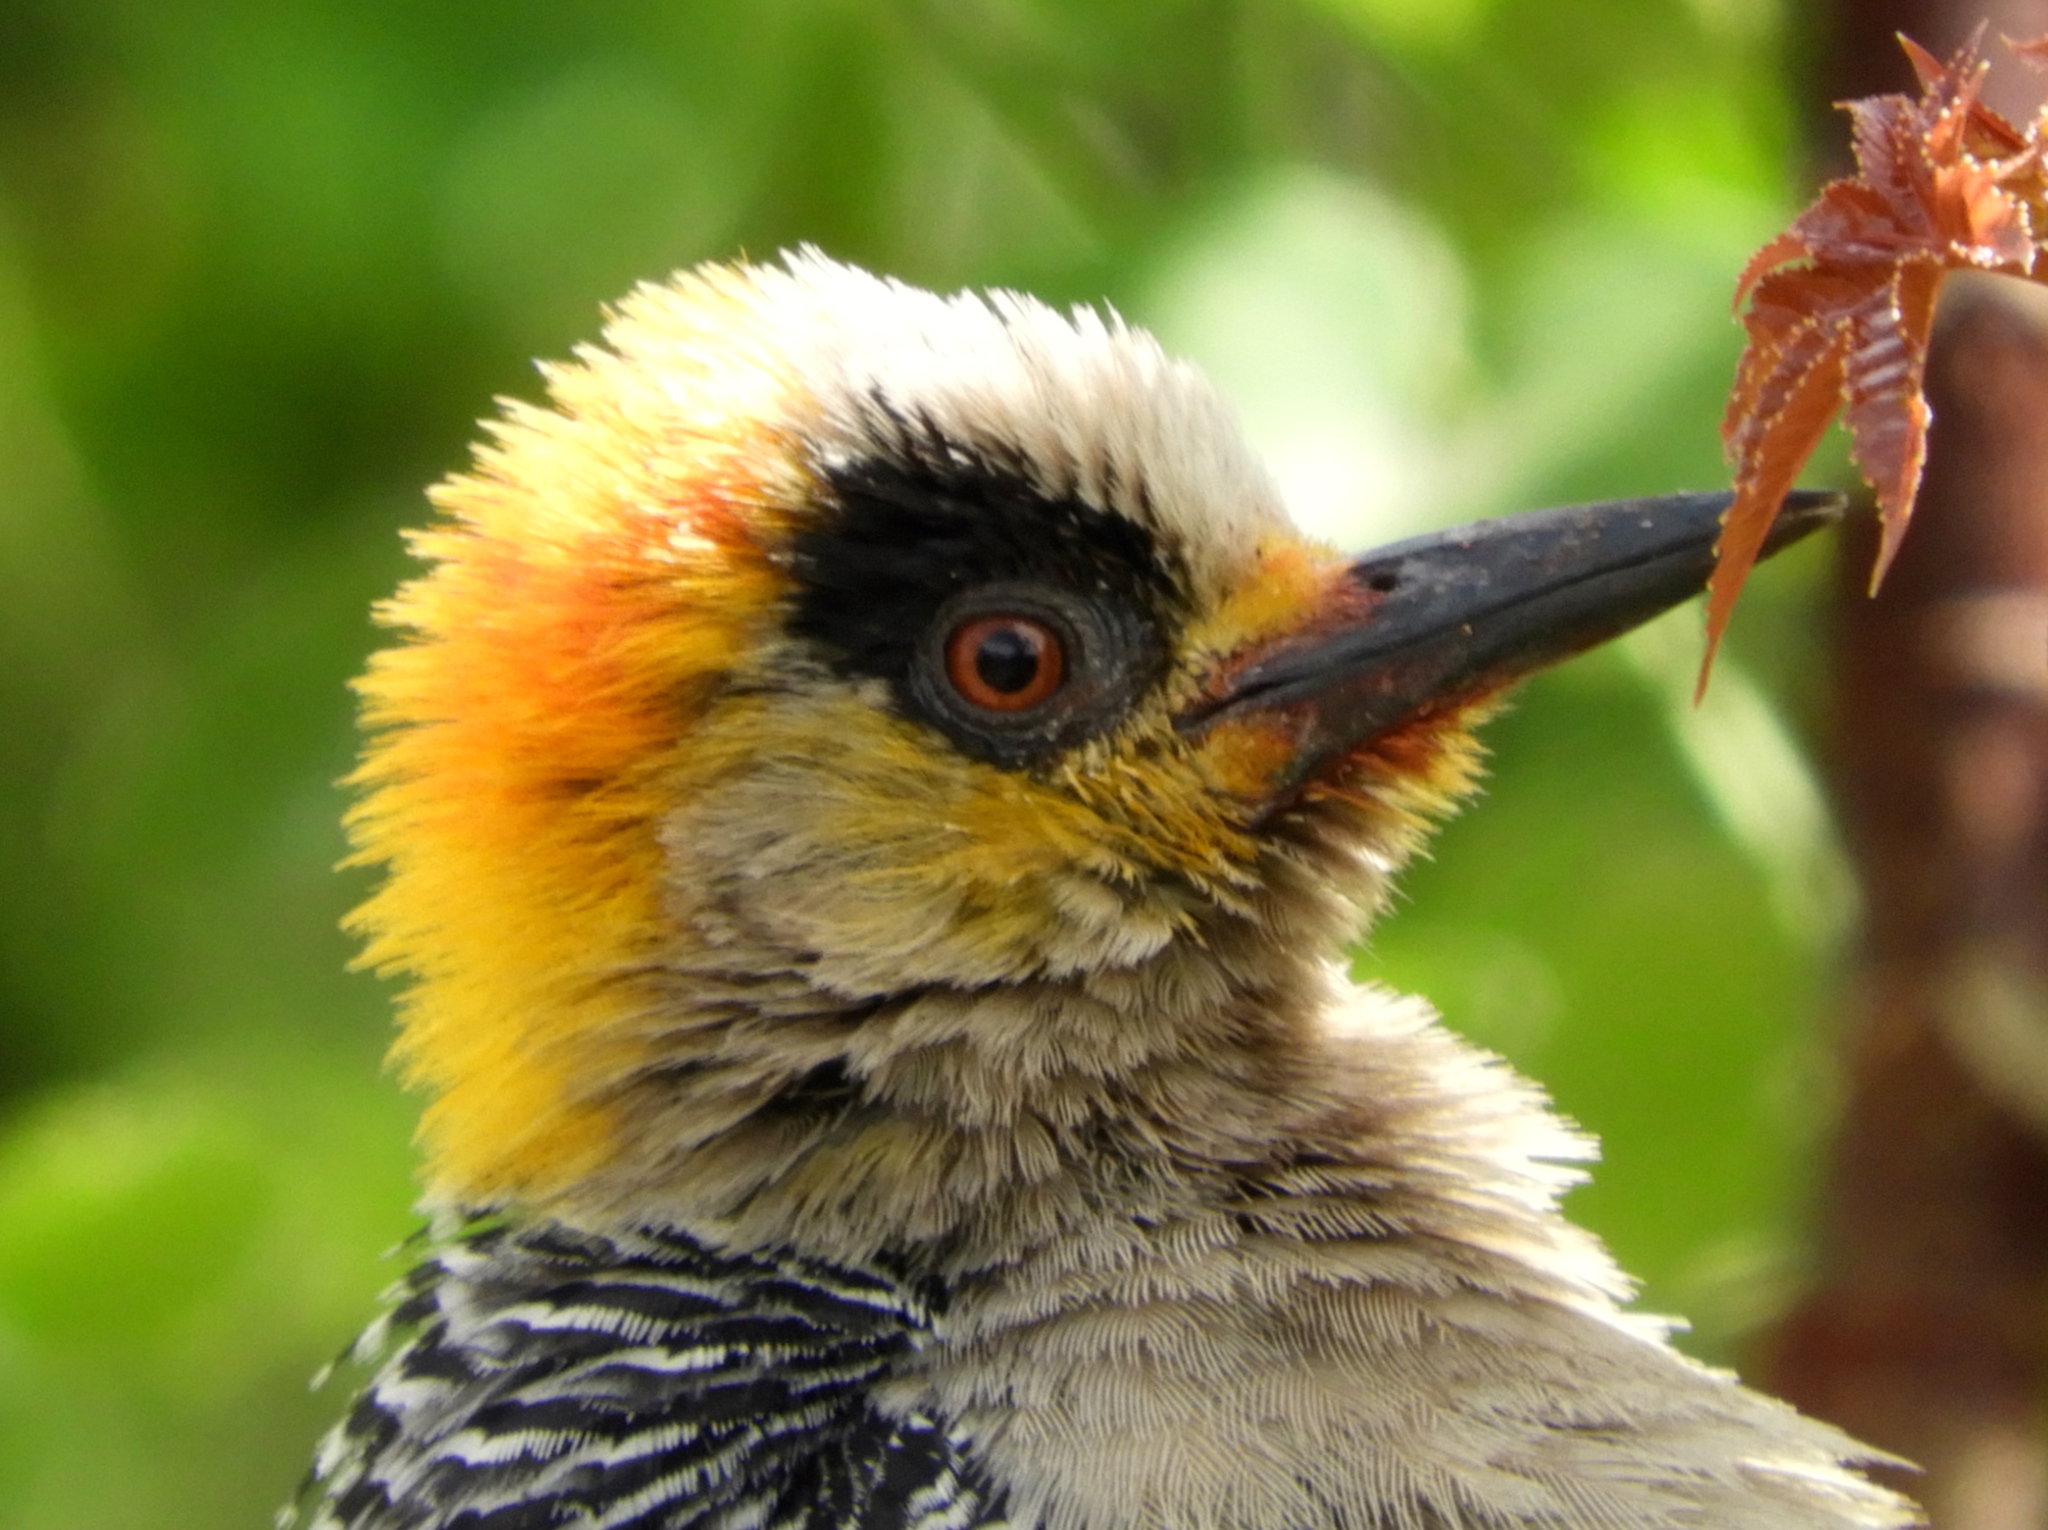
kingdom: Animalia
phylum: Chordata
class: Aves
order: Piciformes
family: Picidae
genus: Melanerpes
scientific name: Melanerpes chrysogenys
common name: Golden-cheeked woodpecker
